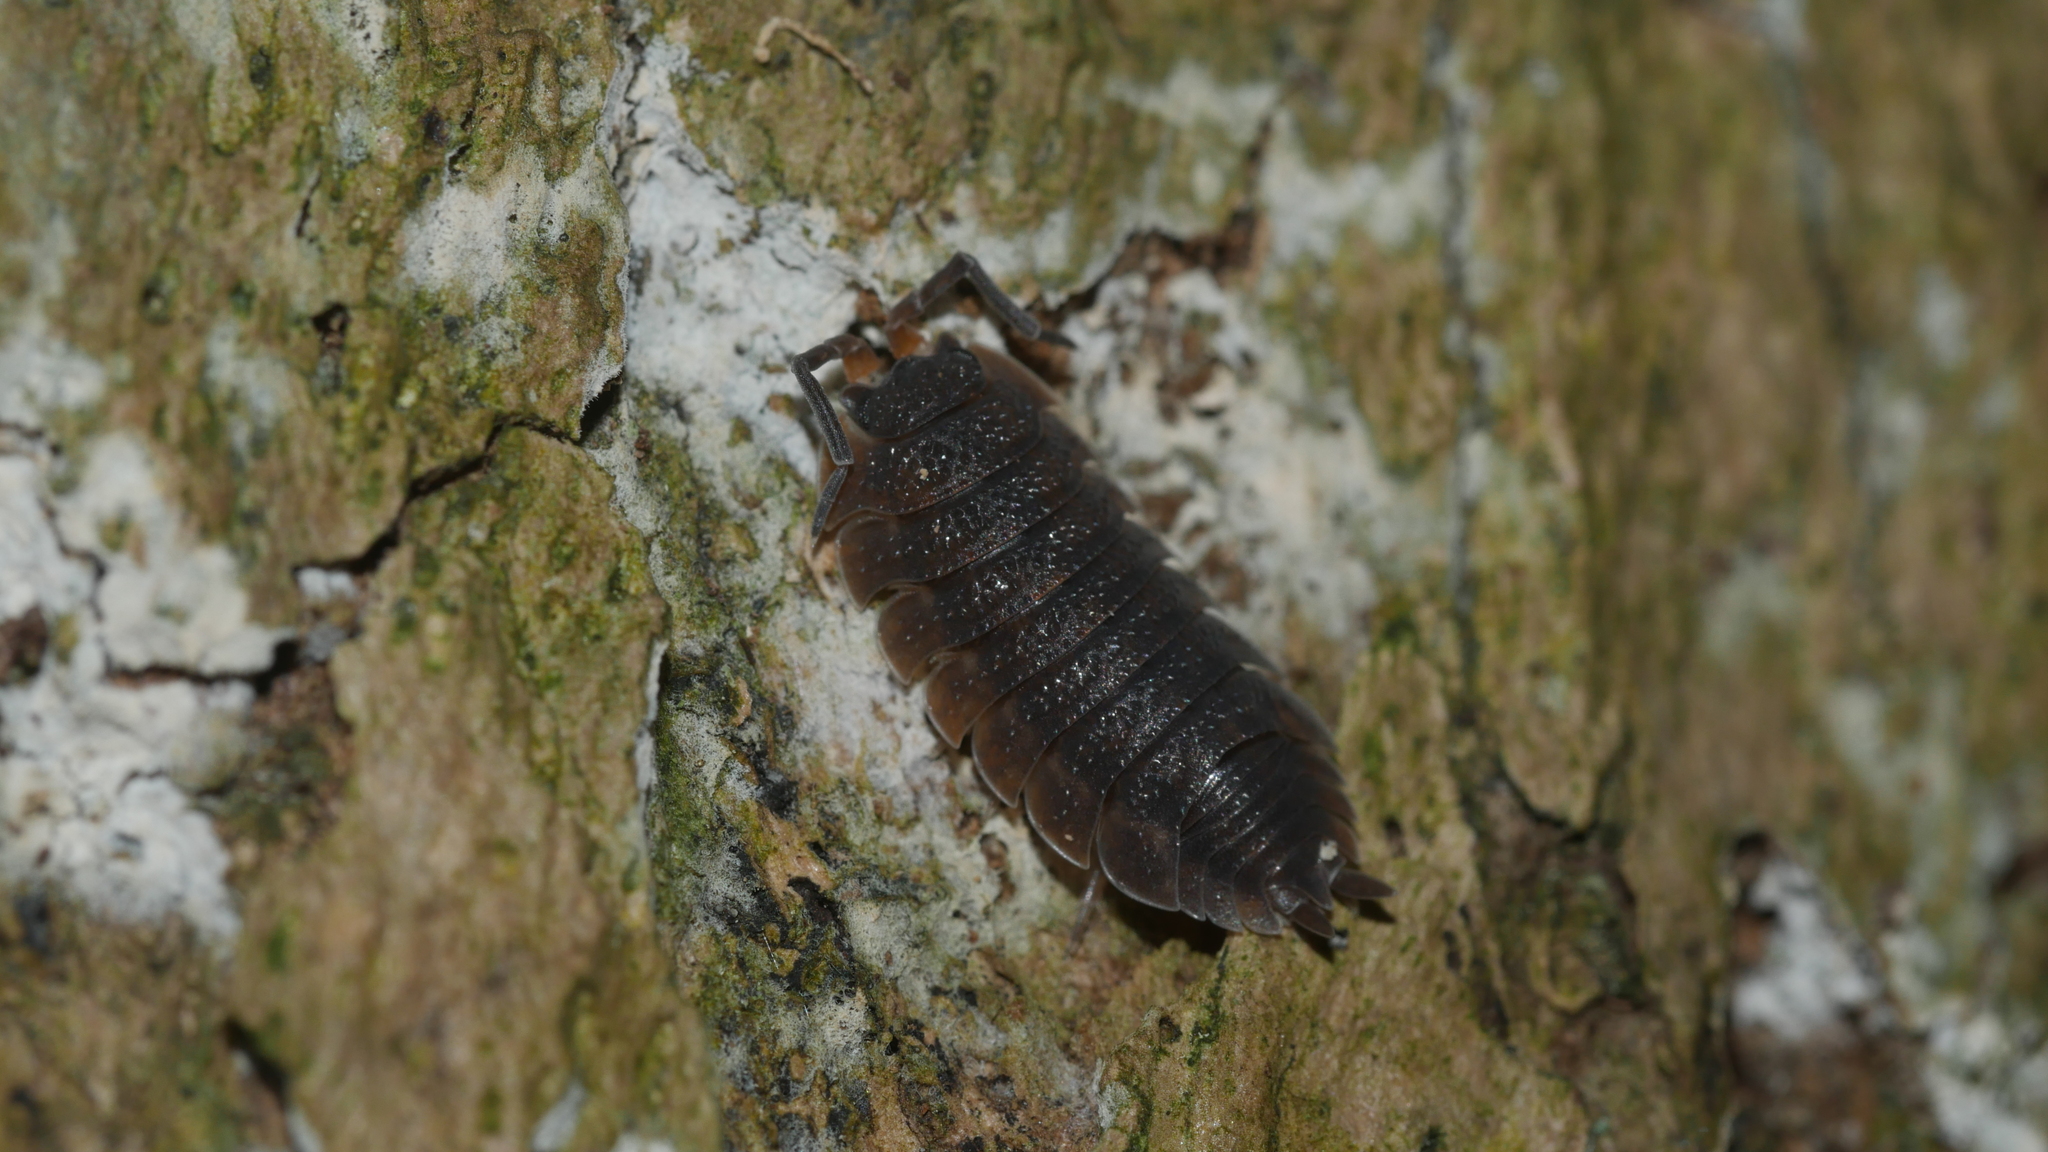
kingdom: Animalia
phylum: Arthropoda
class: Malacostraca
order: Isopoda
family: Porcellionidae
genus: Porcellio
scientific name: Porcellio scaber
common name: Common rough woodlouse
